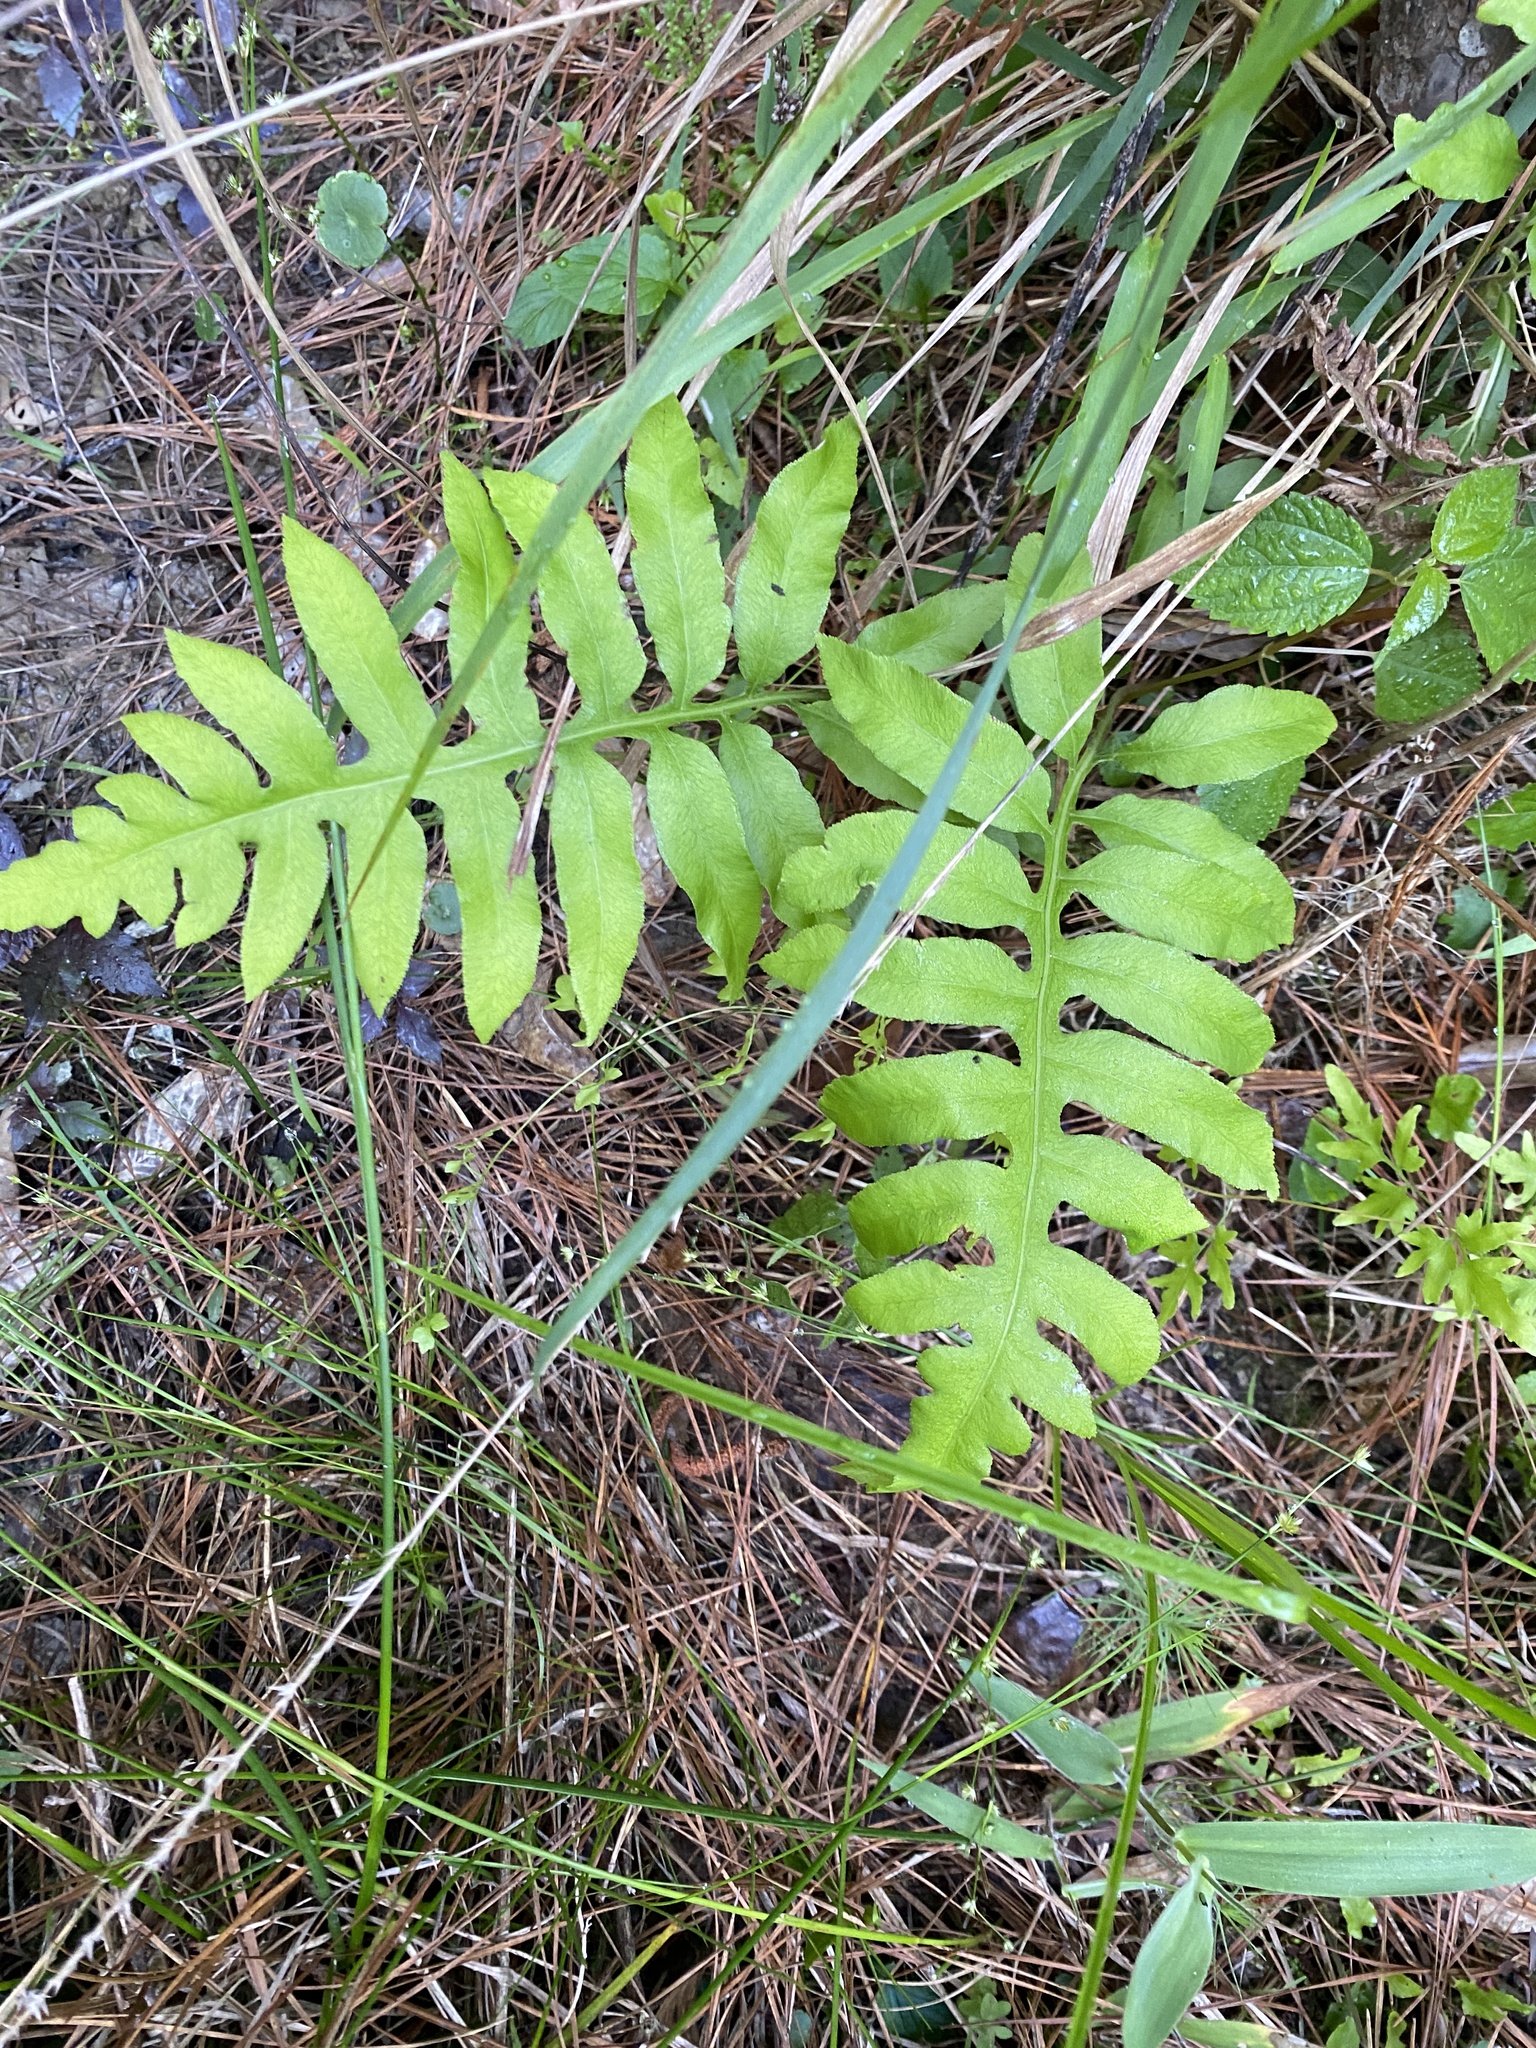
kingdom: Plantae
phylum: Tracheophyta
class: Polypodiopsida
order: Polypodiales
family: Blechnaceae
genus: Lorinseria
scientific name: Lorinseria areolata
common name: Dwarf chain fern
